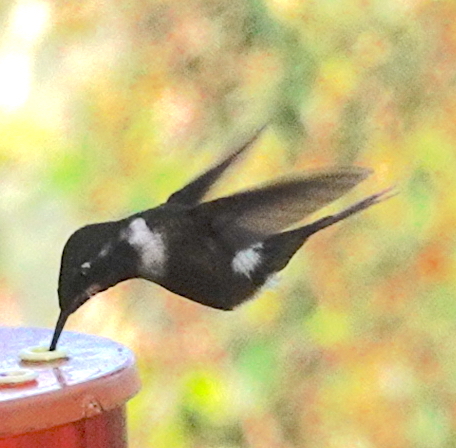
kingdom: Animalia
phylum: Chordata
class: Aves
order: Apodiformes
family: Trochilidae
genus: Calliphlox
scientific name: Calliphlox mitchellii
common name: Purple-throated woodstar
